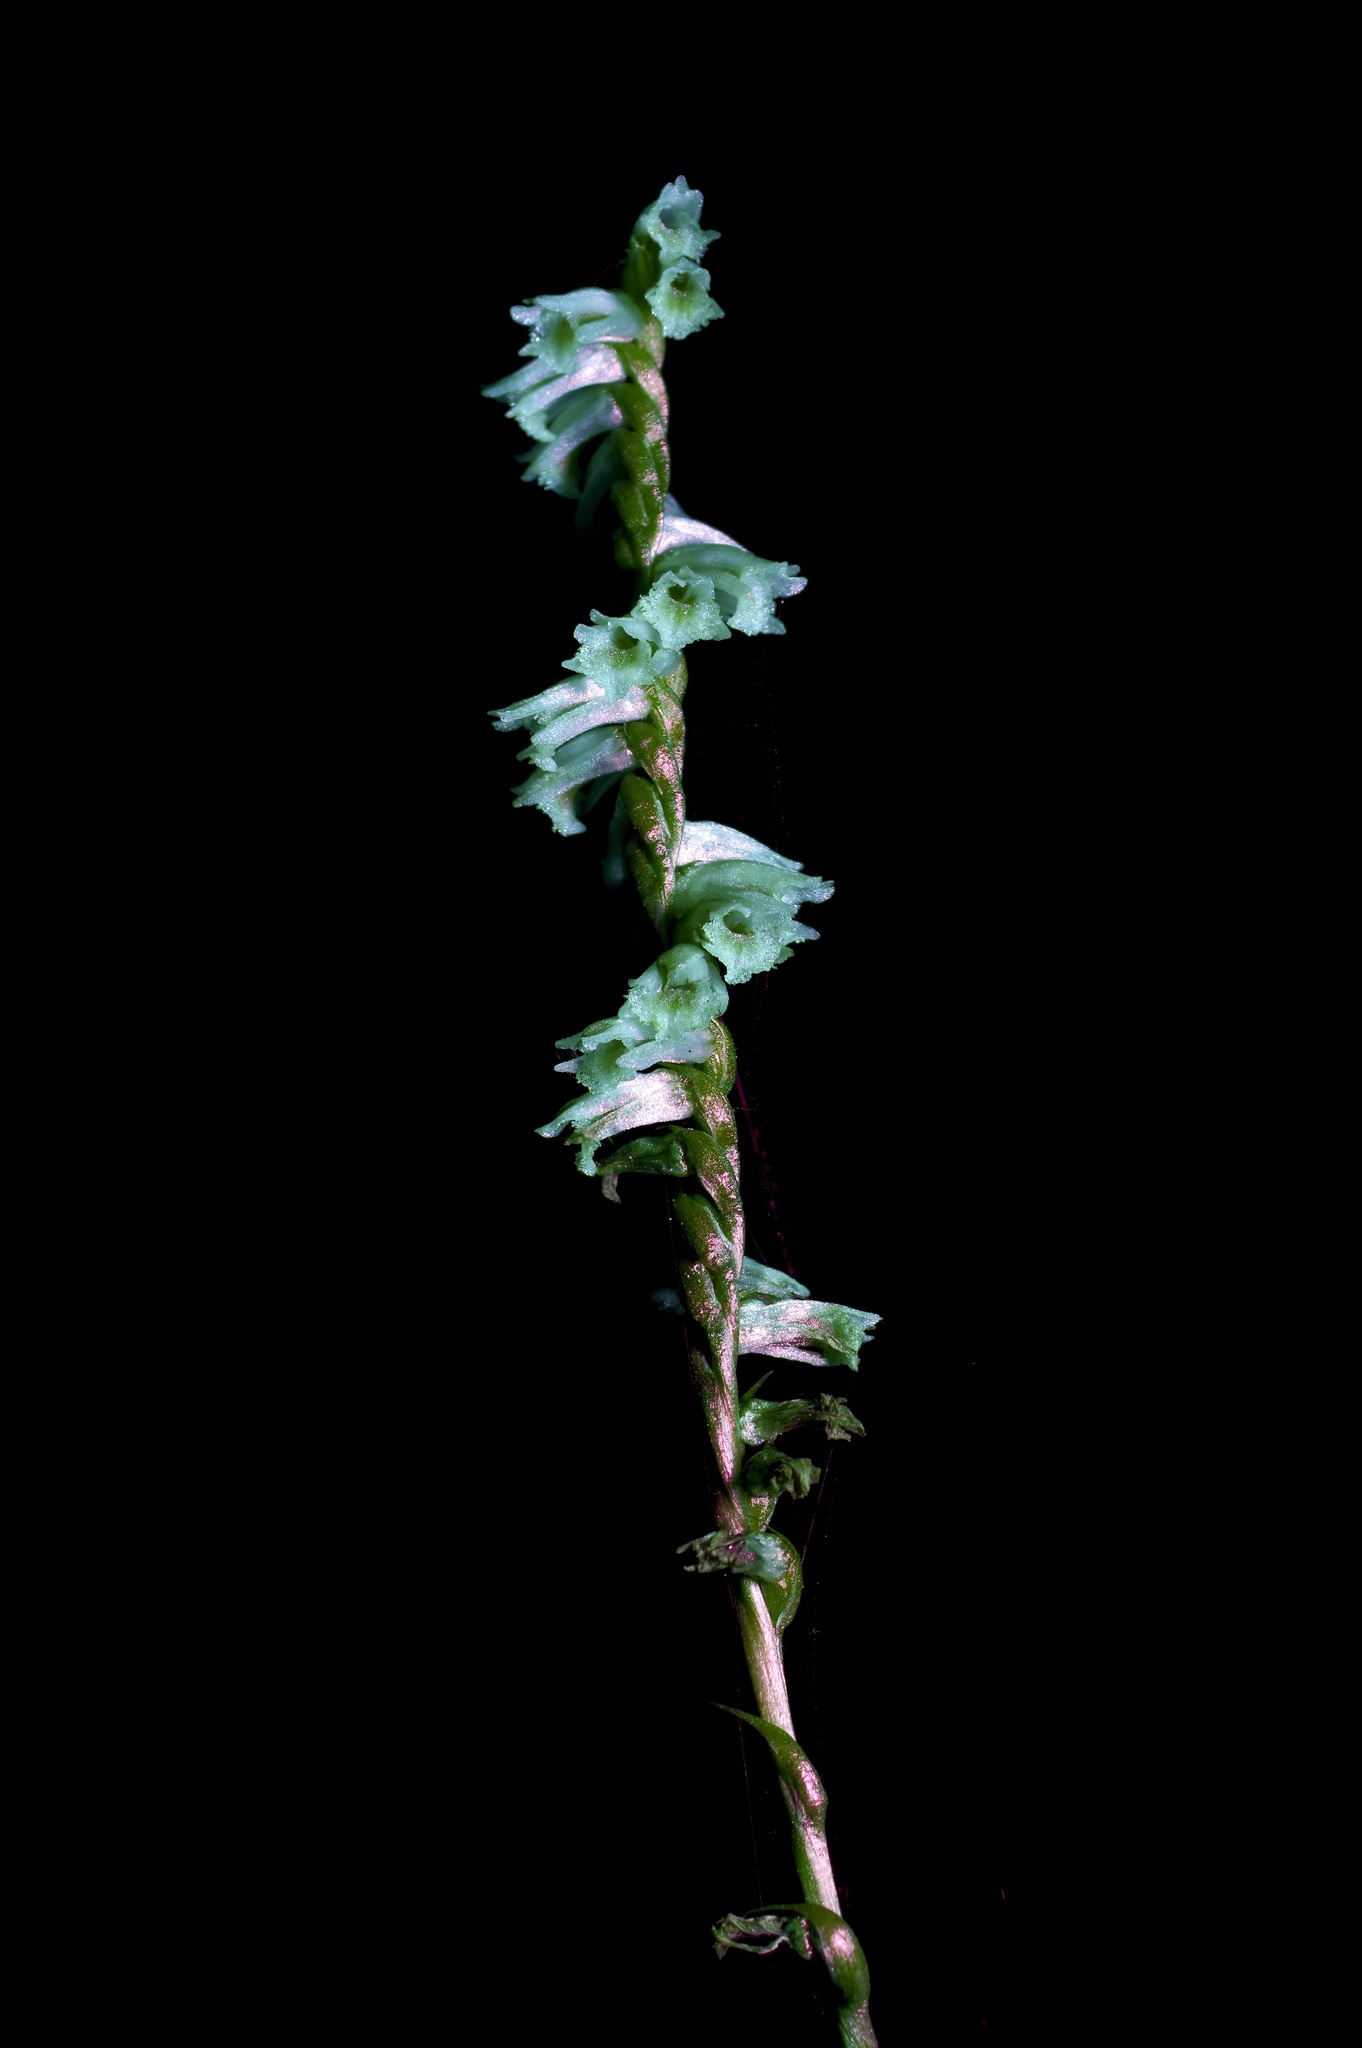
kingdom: Plantae
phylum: Tracheophyta
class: Liliopsida
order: Asparagales
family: Orchidaceae
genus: Spiranthes
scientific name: Spiranthes lacera
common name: Northern slender ladies'-tresses
